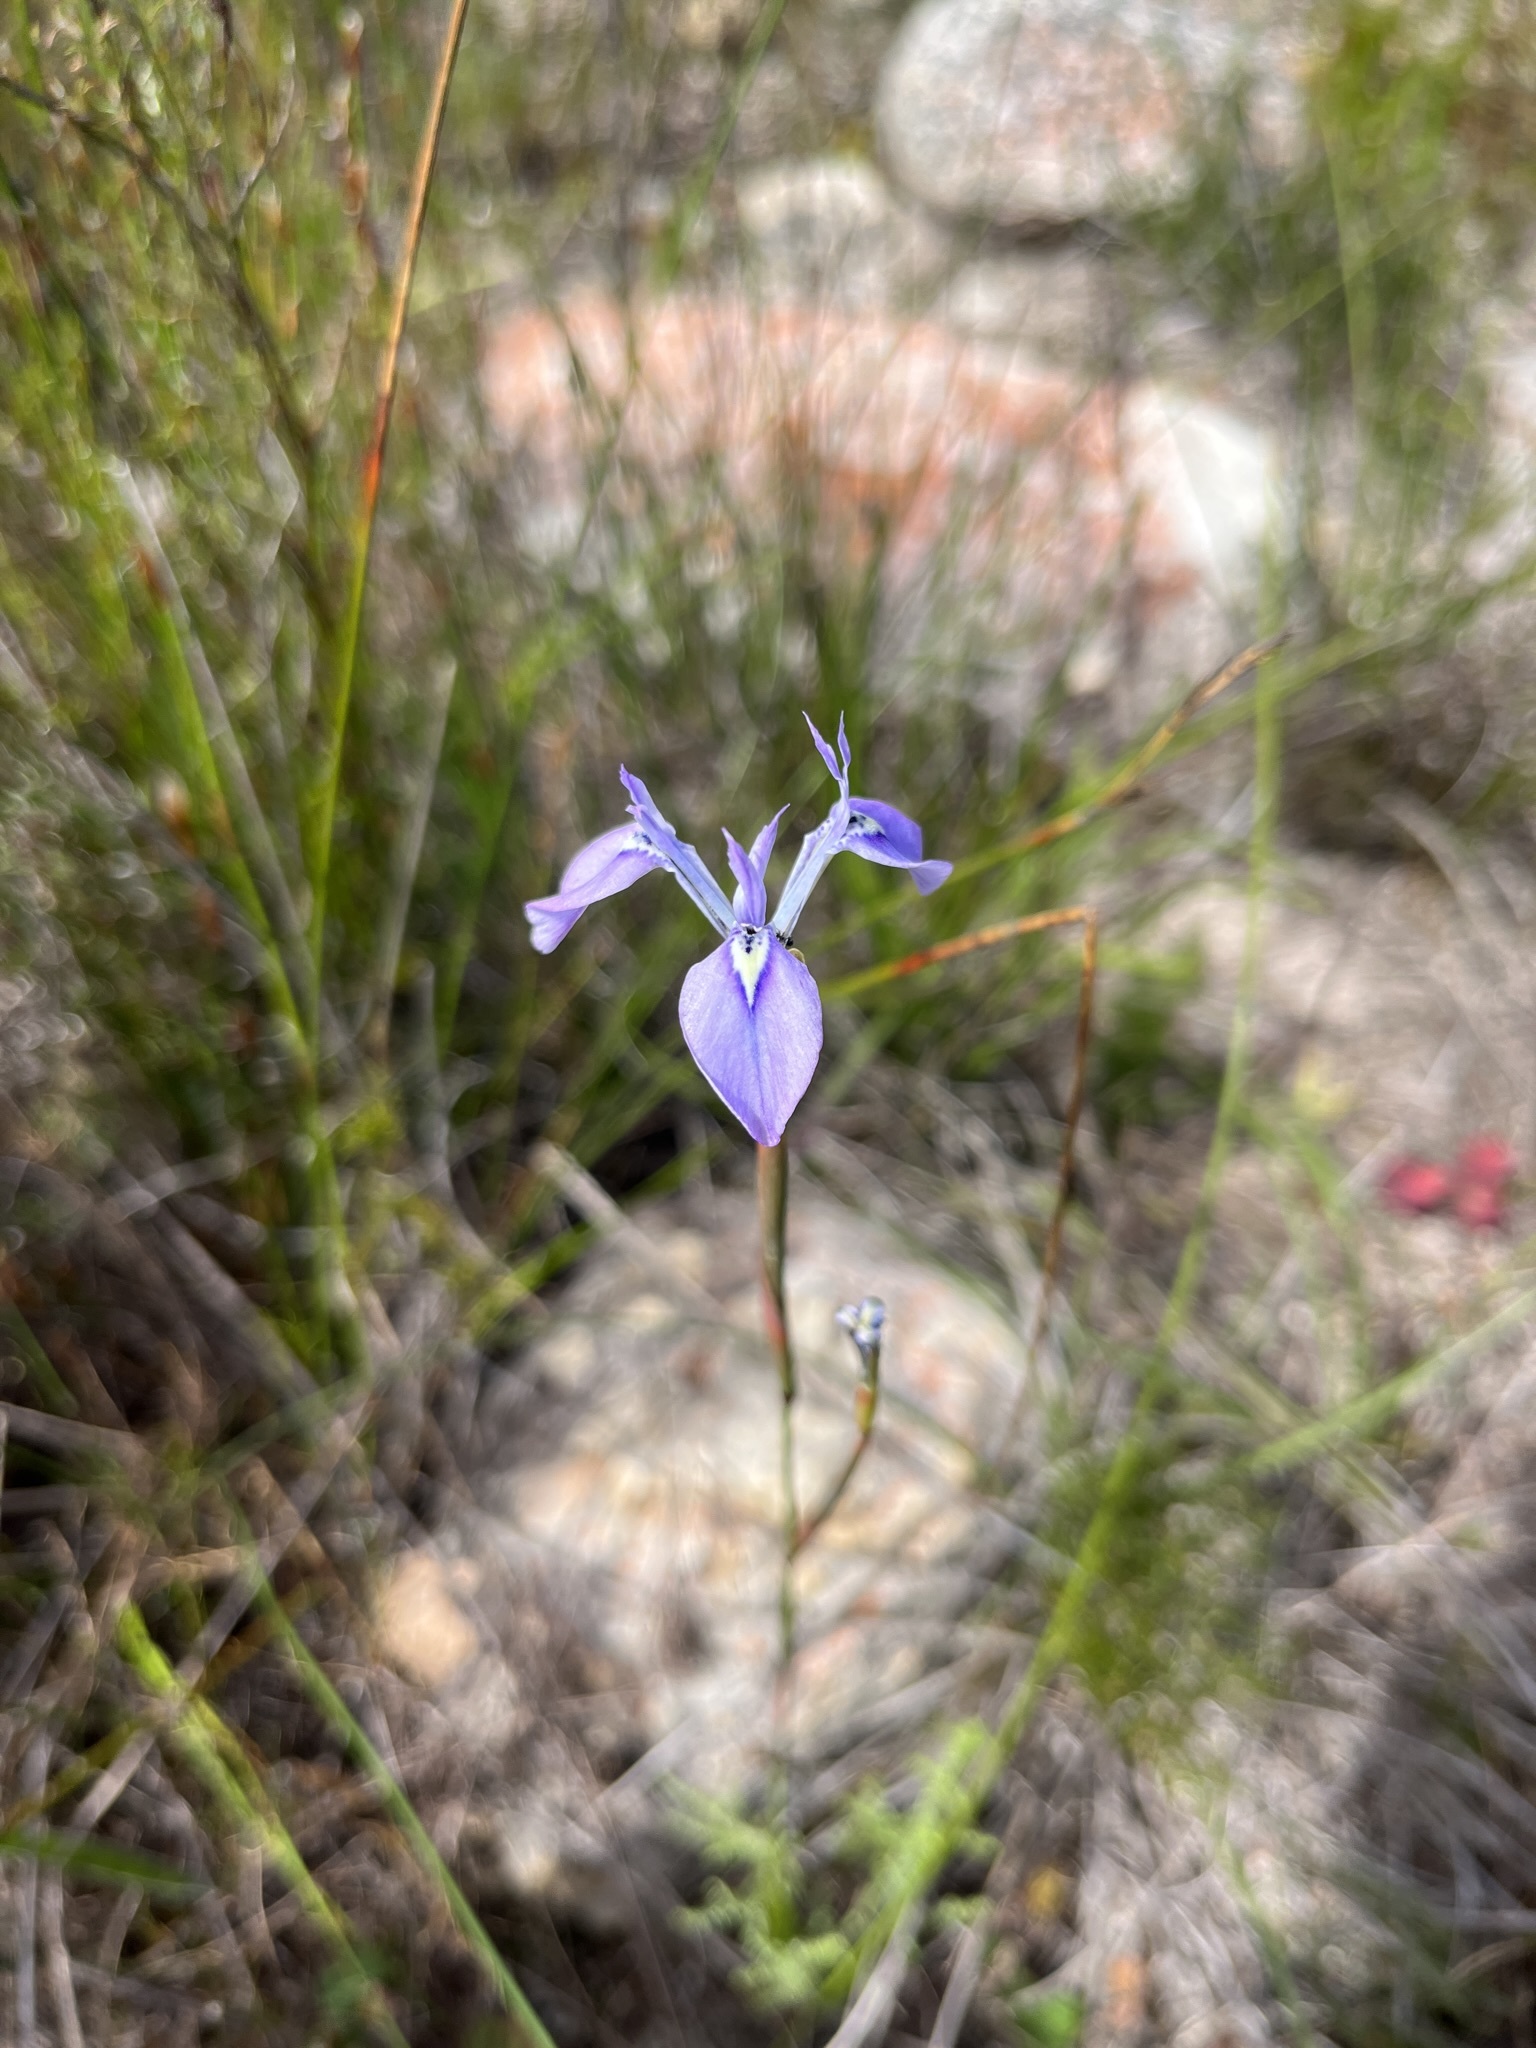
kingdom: Plantae
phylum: Tracheophyta
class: Liliopsida
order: Asparagales
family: Iridaceae
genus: Moraea
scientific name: Moraea tripetala
